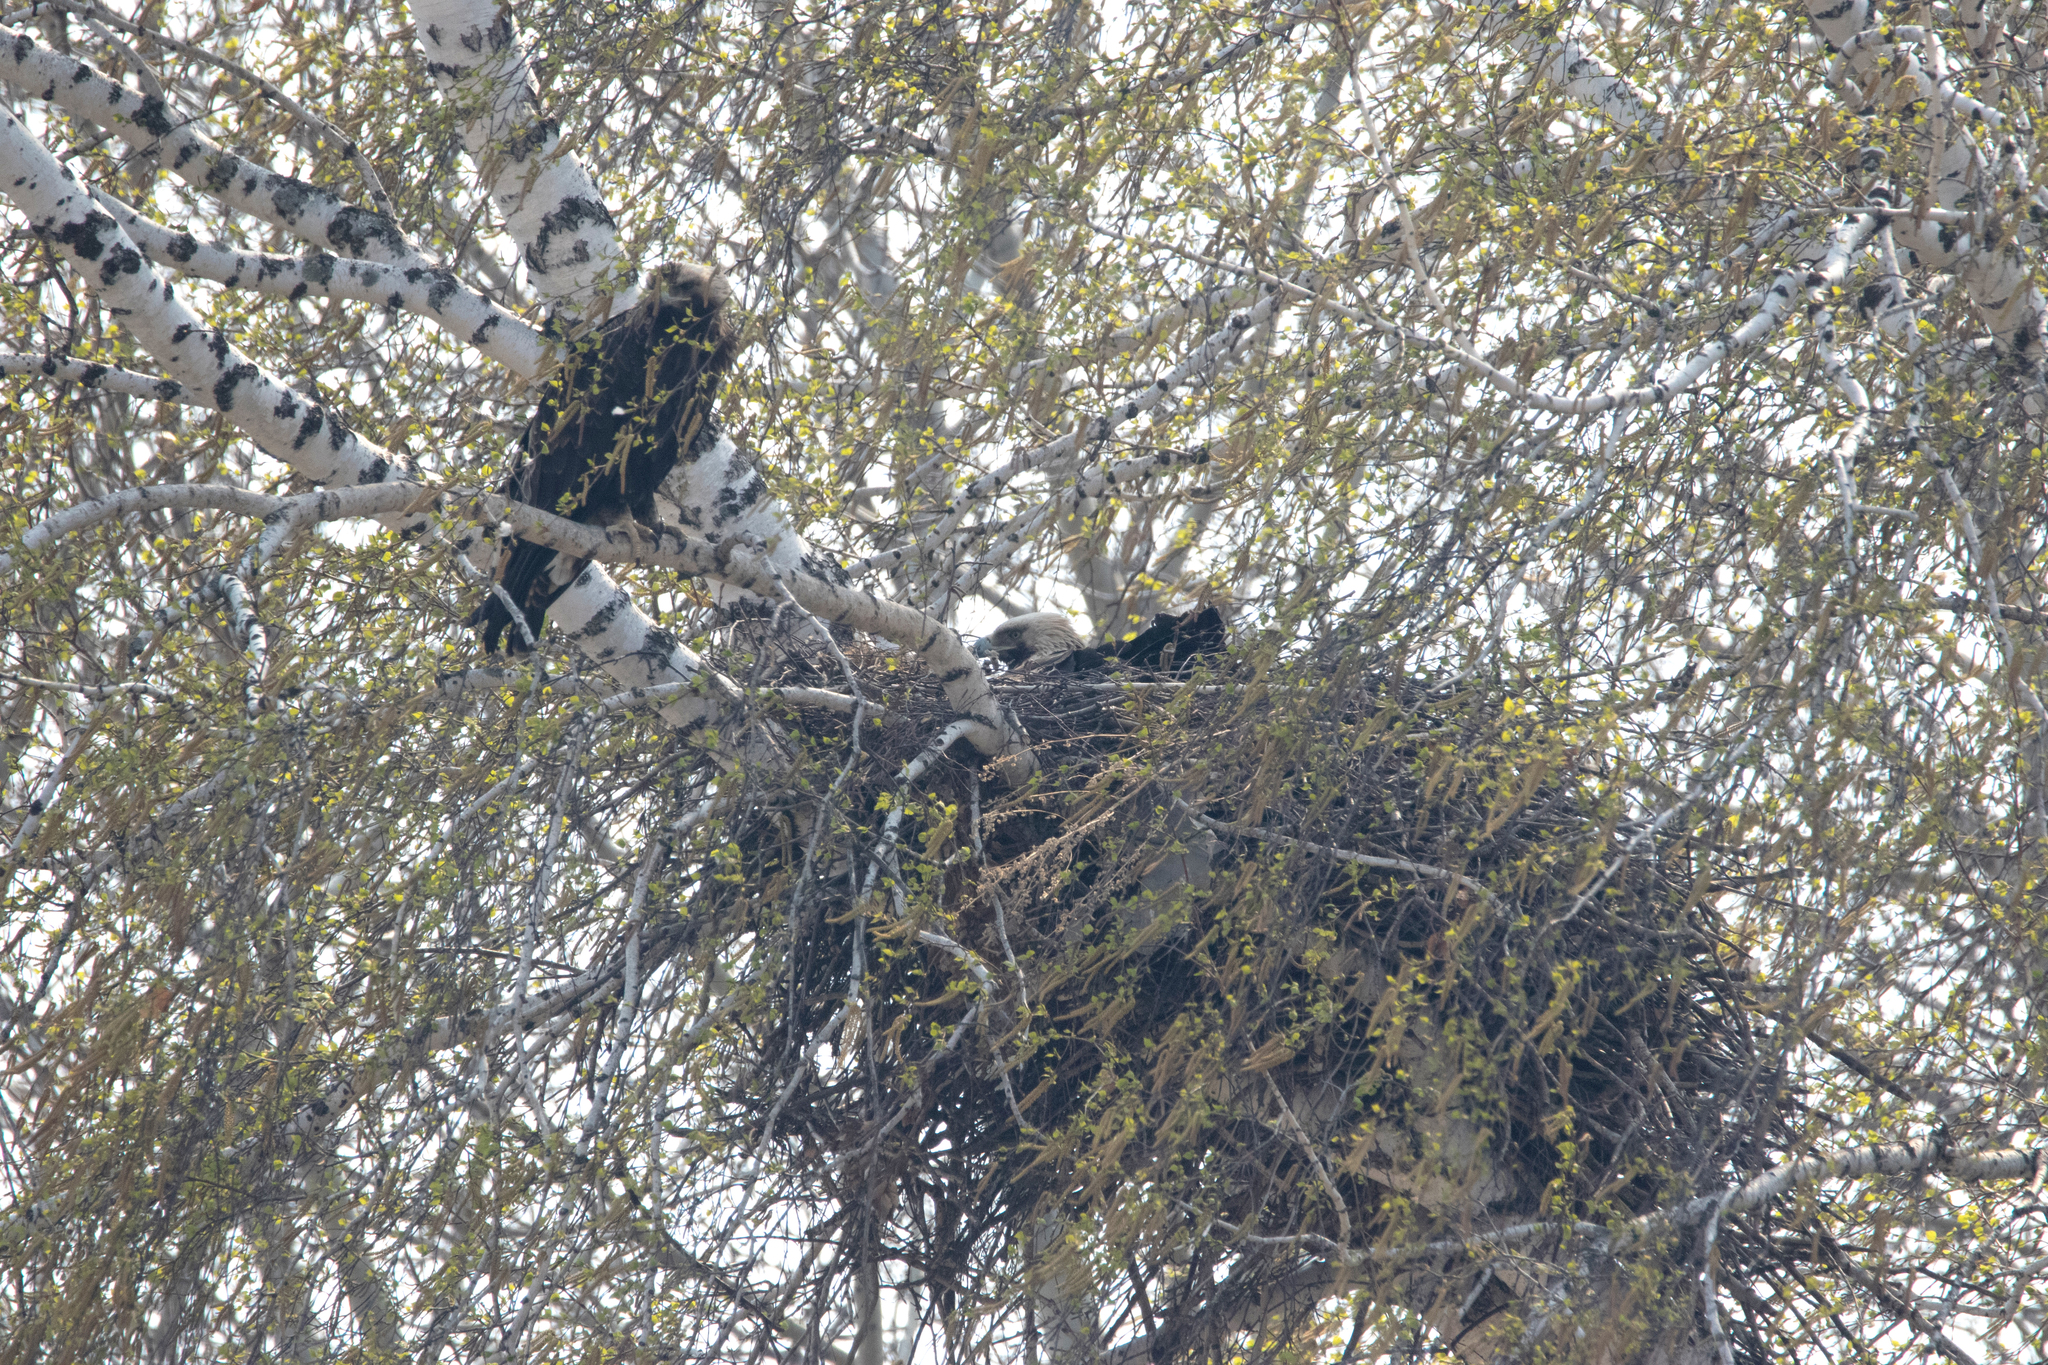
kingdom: Animalia
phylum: Chordata
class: Aves
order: Accipitriformes
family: Accipitridae
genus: Aquila
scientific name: Aquila heliaca
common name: Eastern imperial eagle
